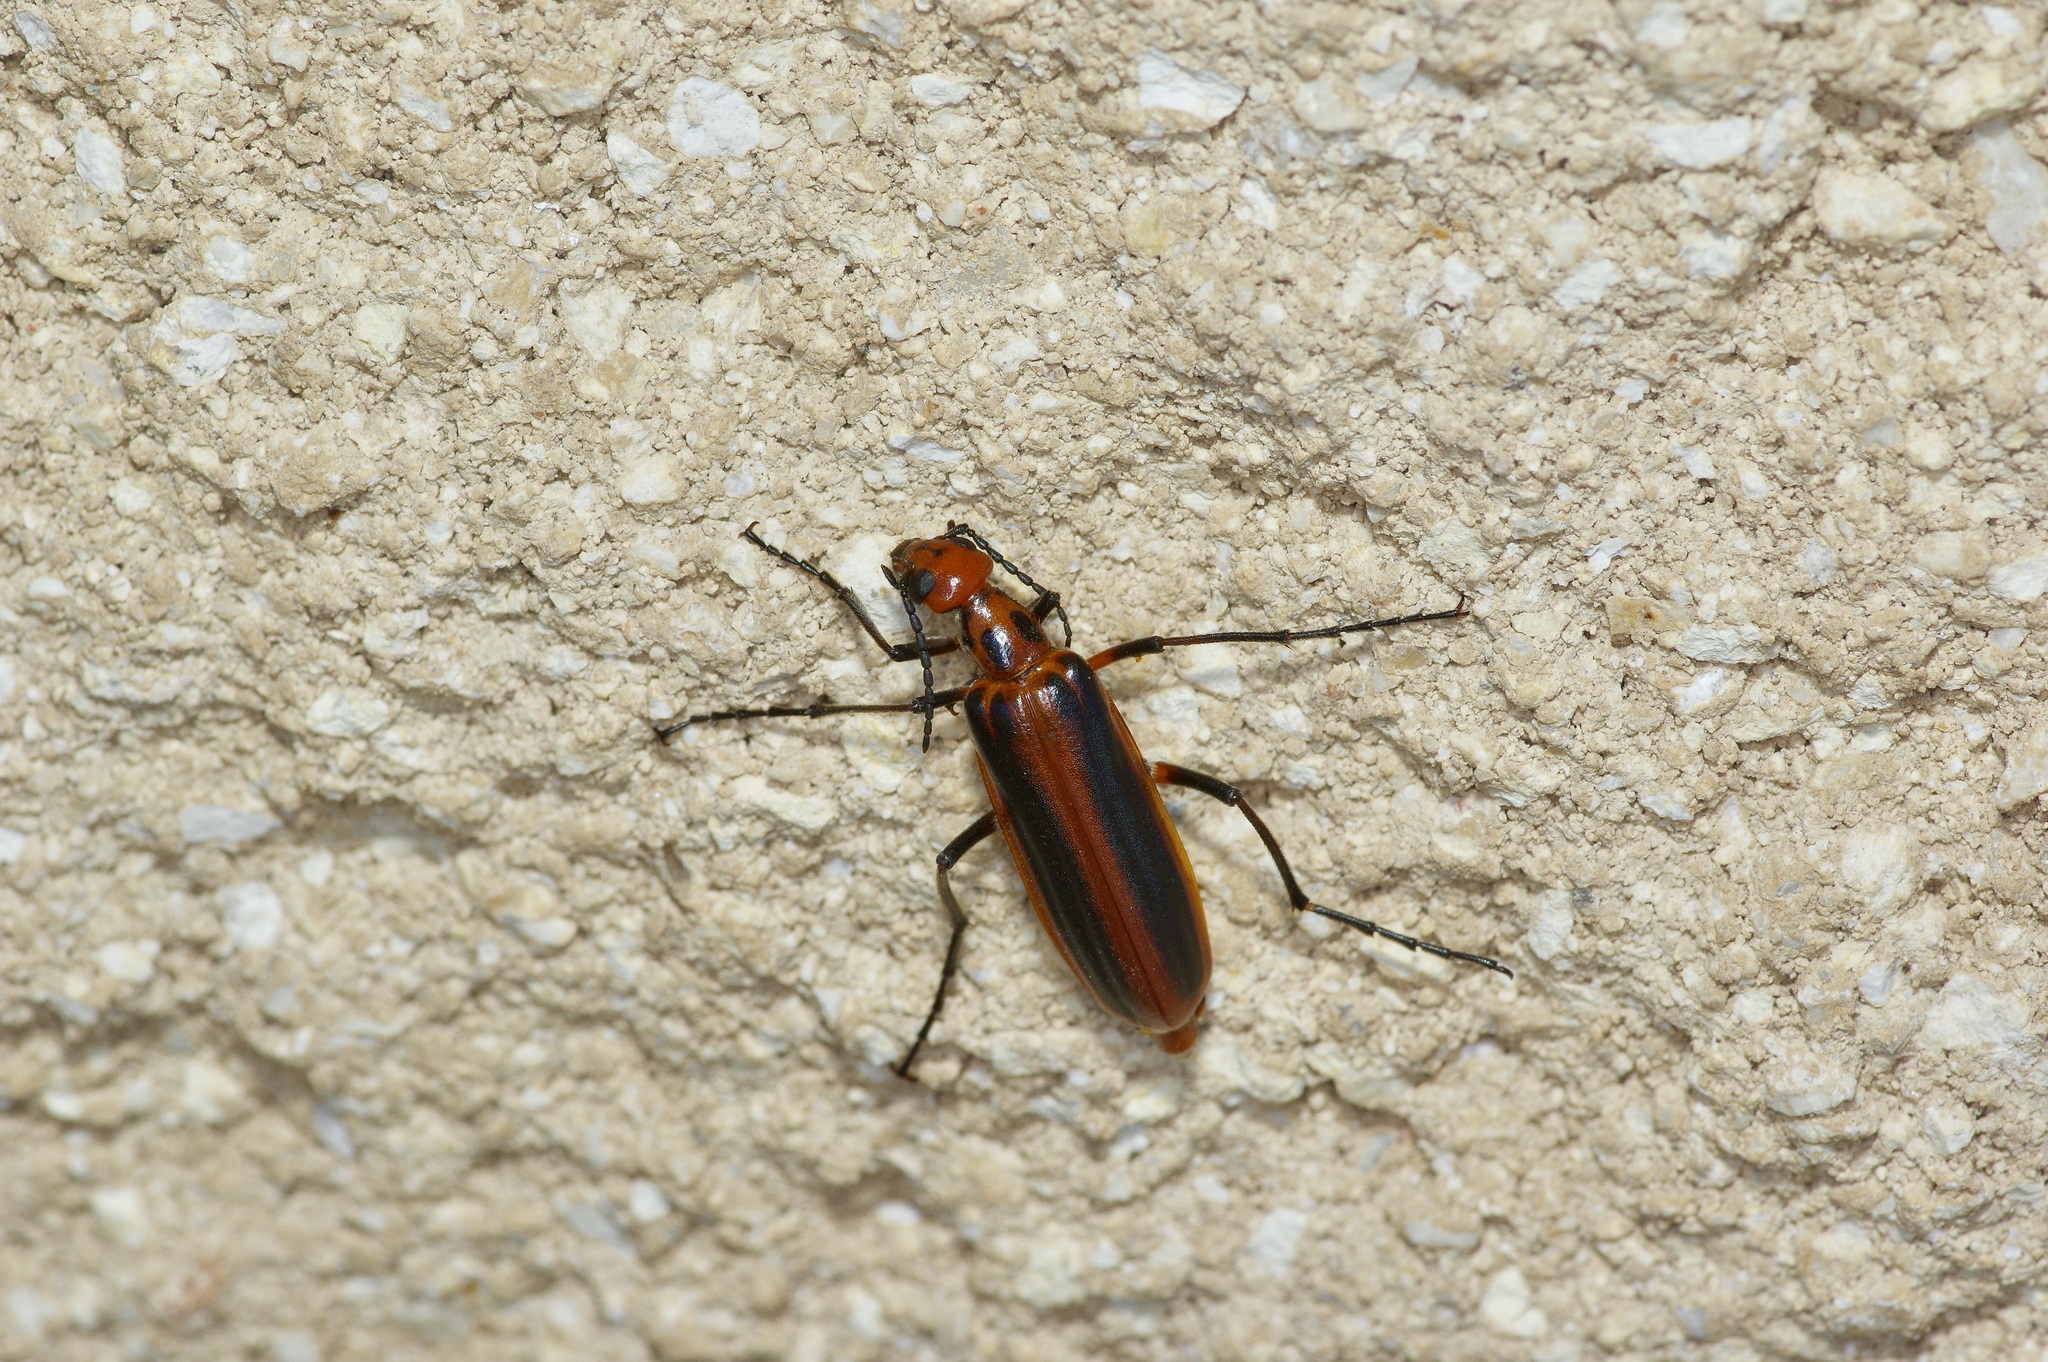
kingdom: Animalia
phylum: Arthropoda
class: Insecta
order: Coleoptera
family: Meloidae
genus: Pyrota
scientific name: Pyrota tenuicostatis
